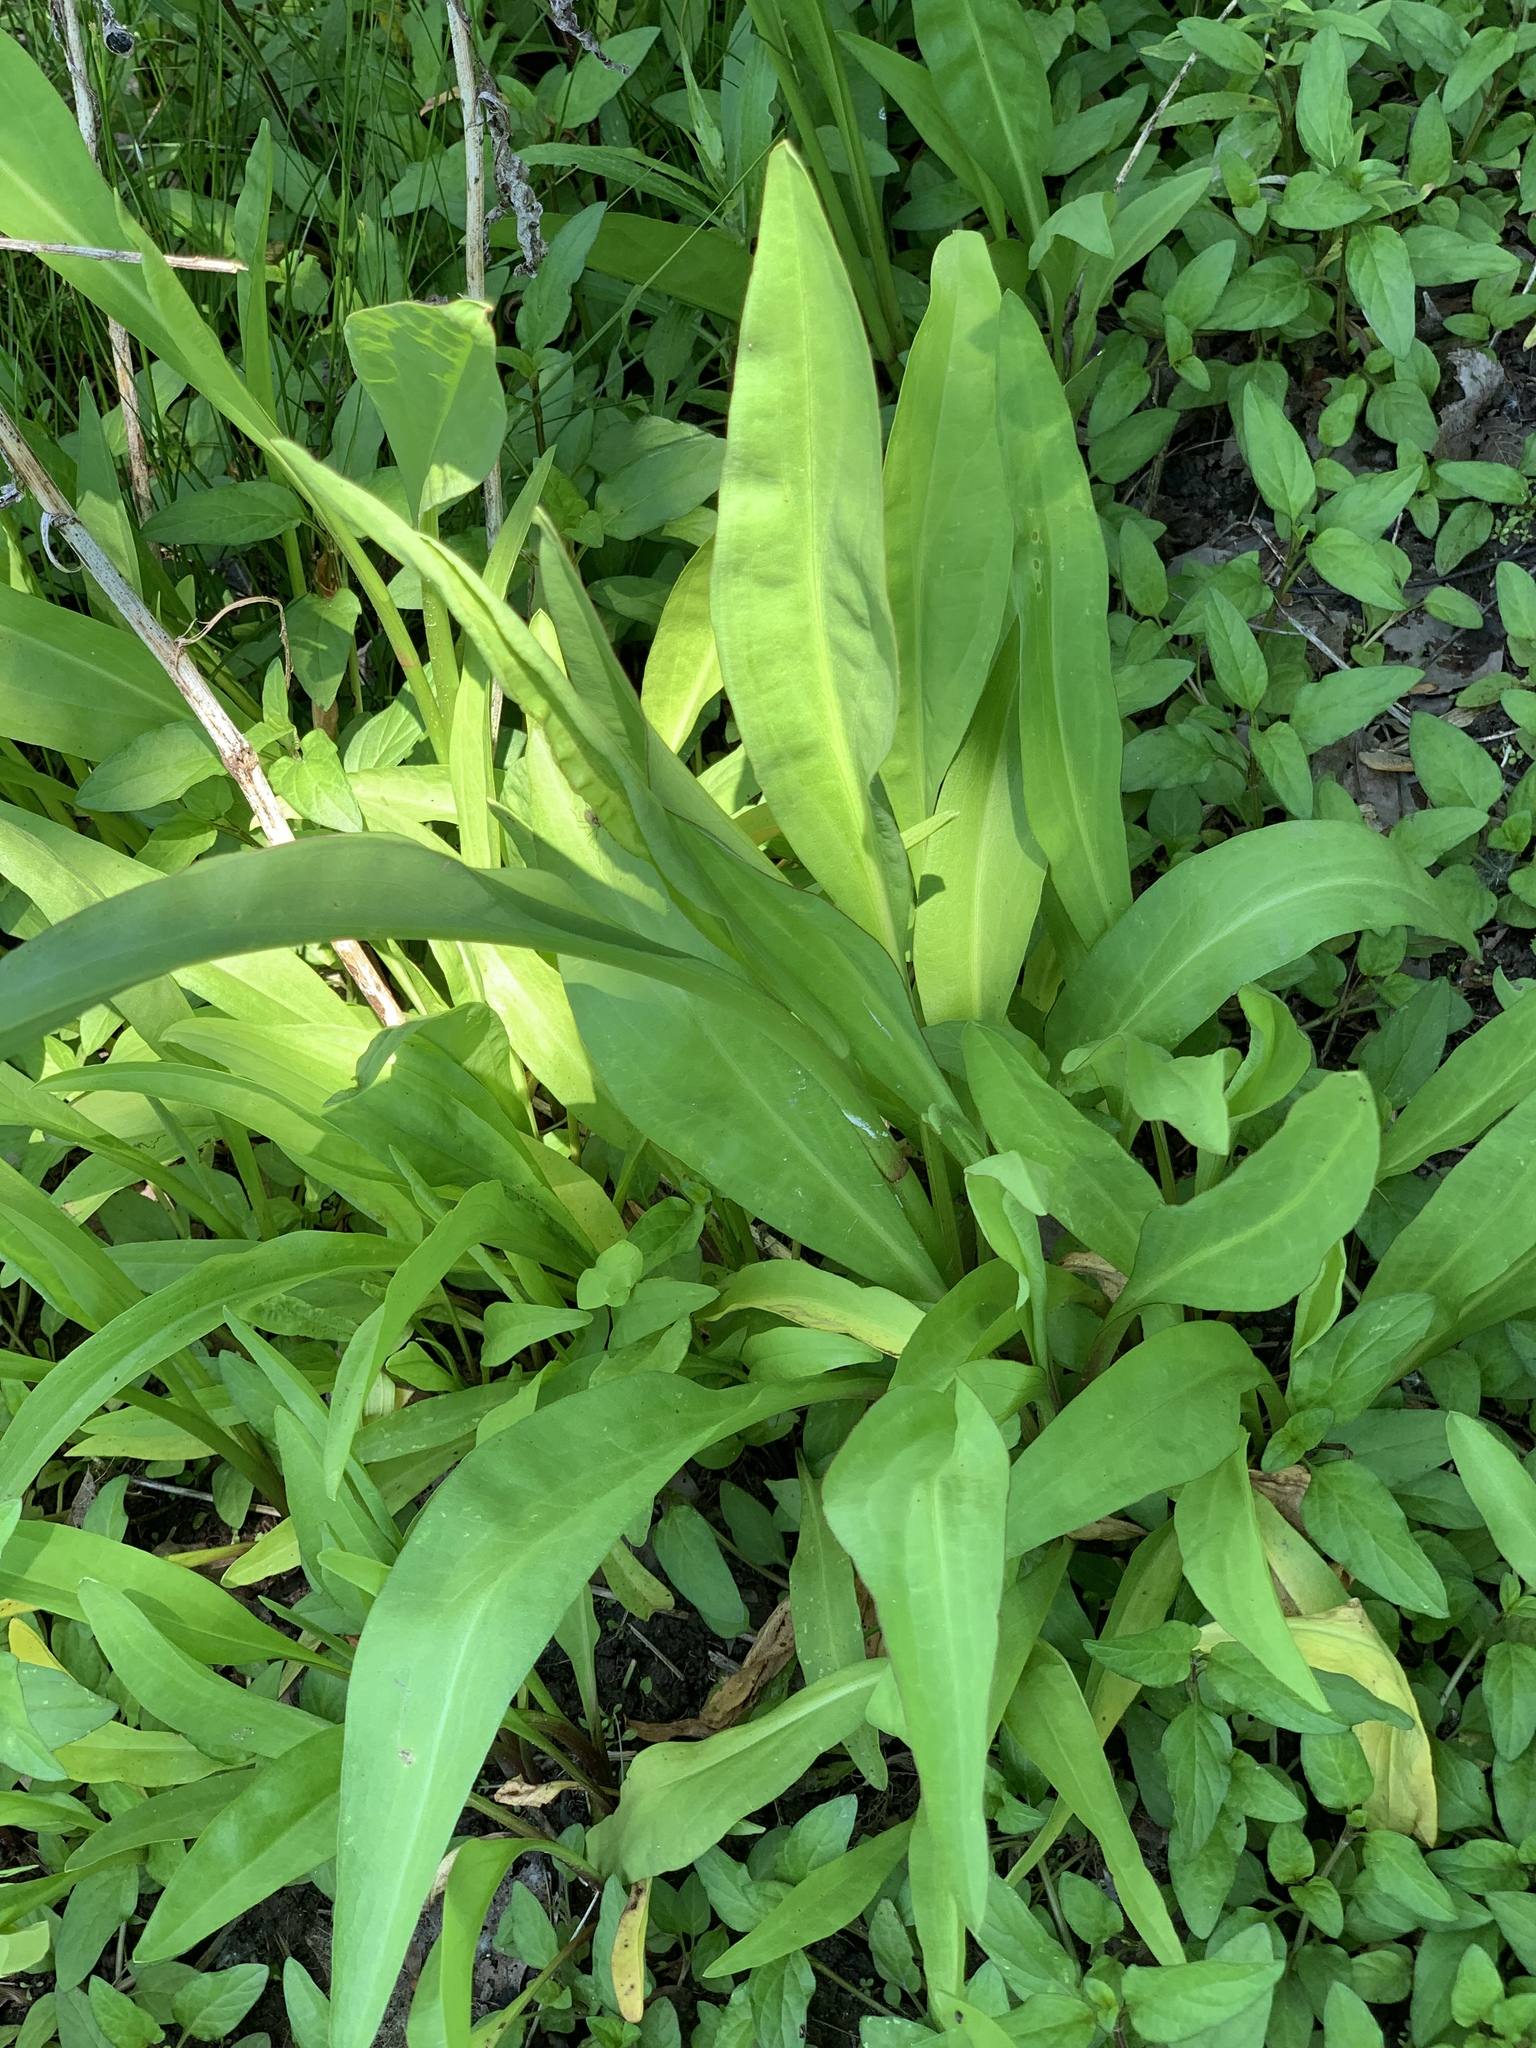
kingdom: Plantae
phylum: Tracheophyta
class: Magnoliopsida
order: Asterales
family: Asteraceae
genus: Solidago
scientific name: Solidago sempervirens
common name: Salt-marsh goldenrod
